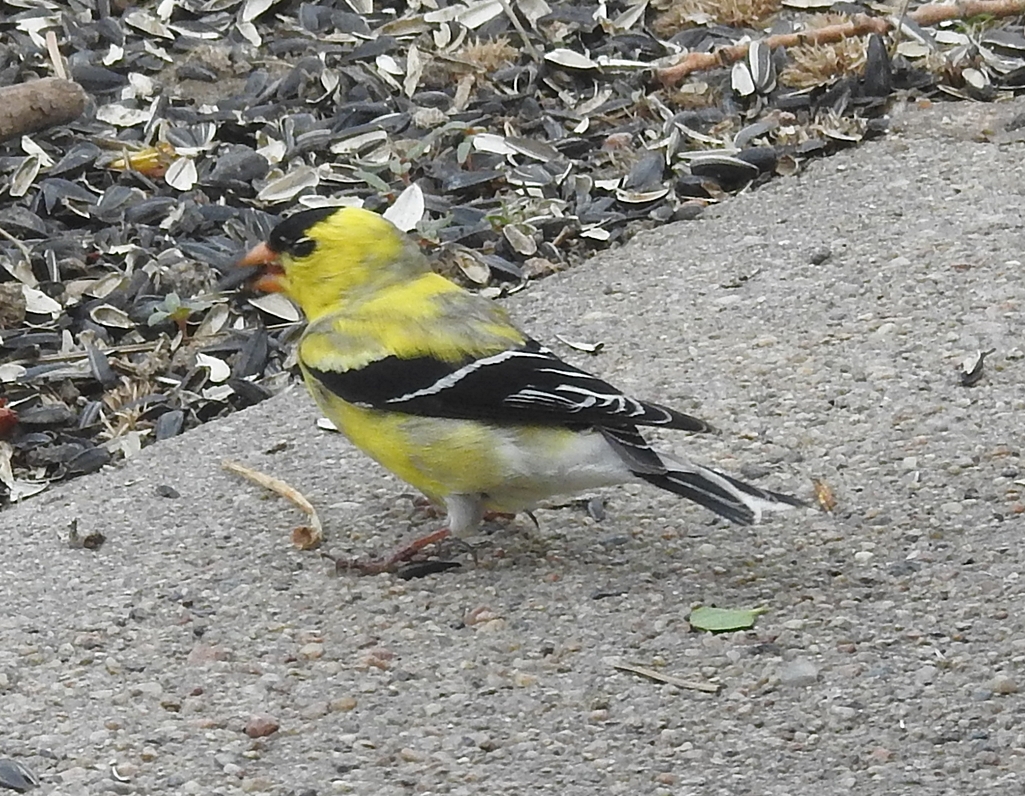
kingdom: Animalia
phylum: Chordata
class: Aves
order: Passeriformes
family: Fringillidae
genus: Spinus
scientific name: Spinus tristis
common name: American goldfinch
